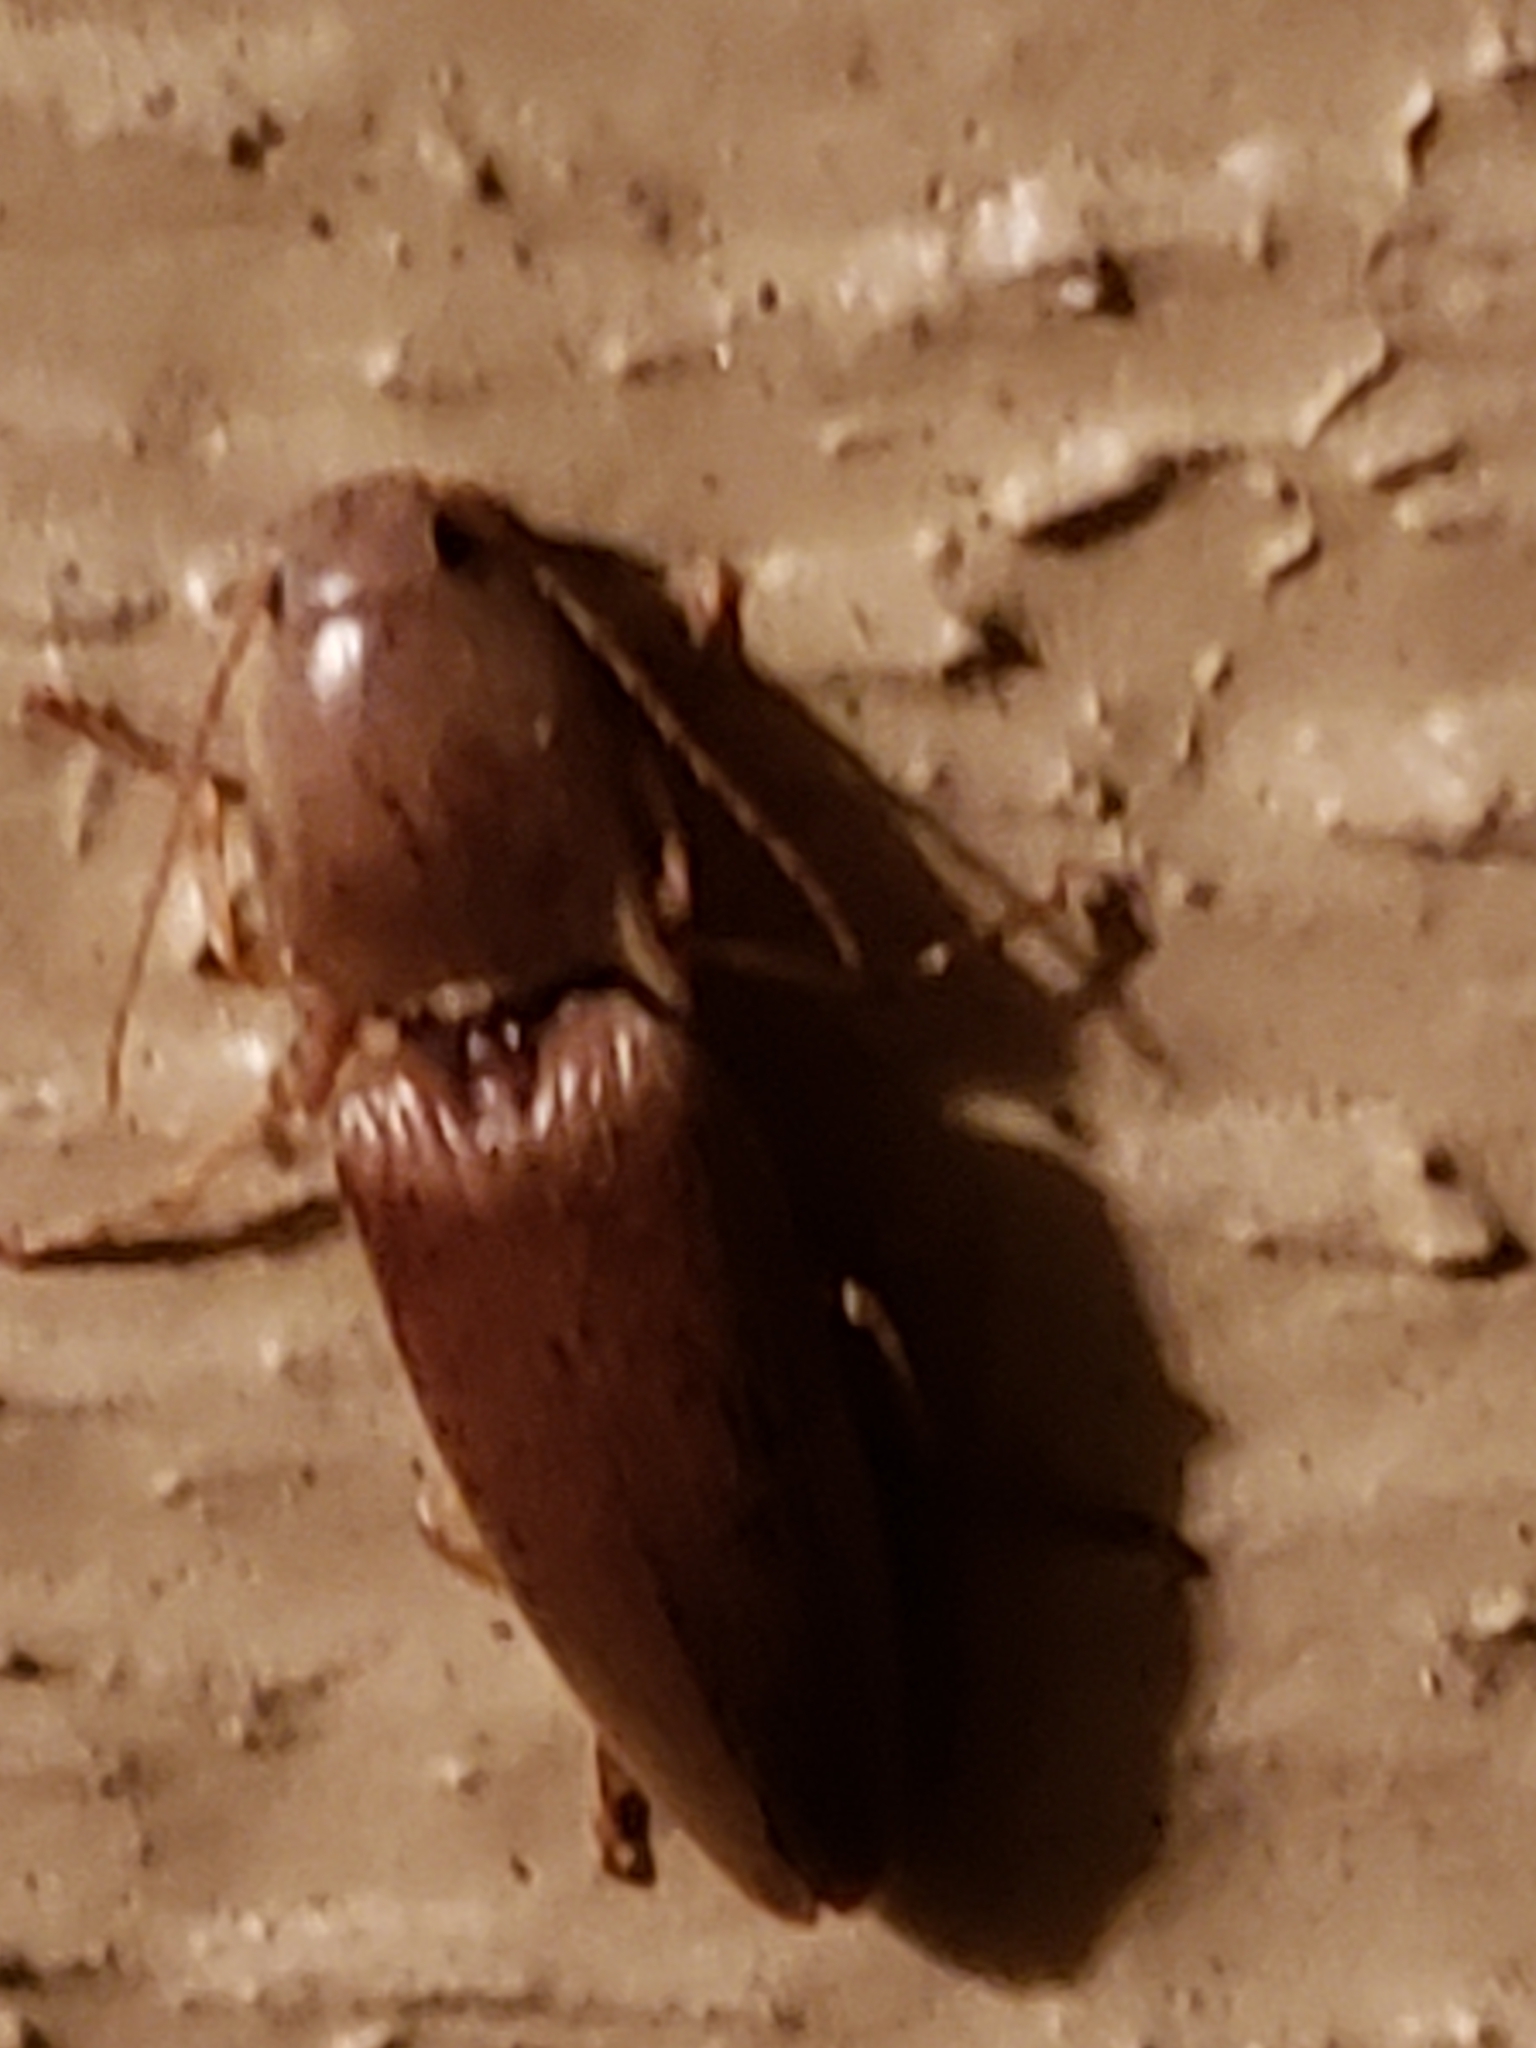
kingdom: Animalia
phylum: Arthropoda
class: Insecta
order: Coleoptera
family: Elateridae
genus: Monocrepidius
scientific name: Monocrepidius lividus
